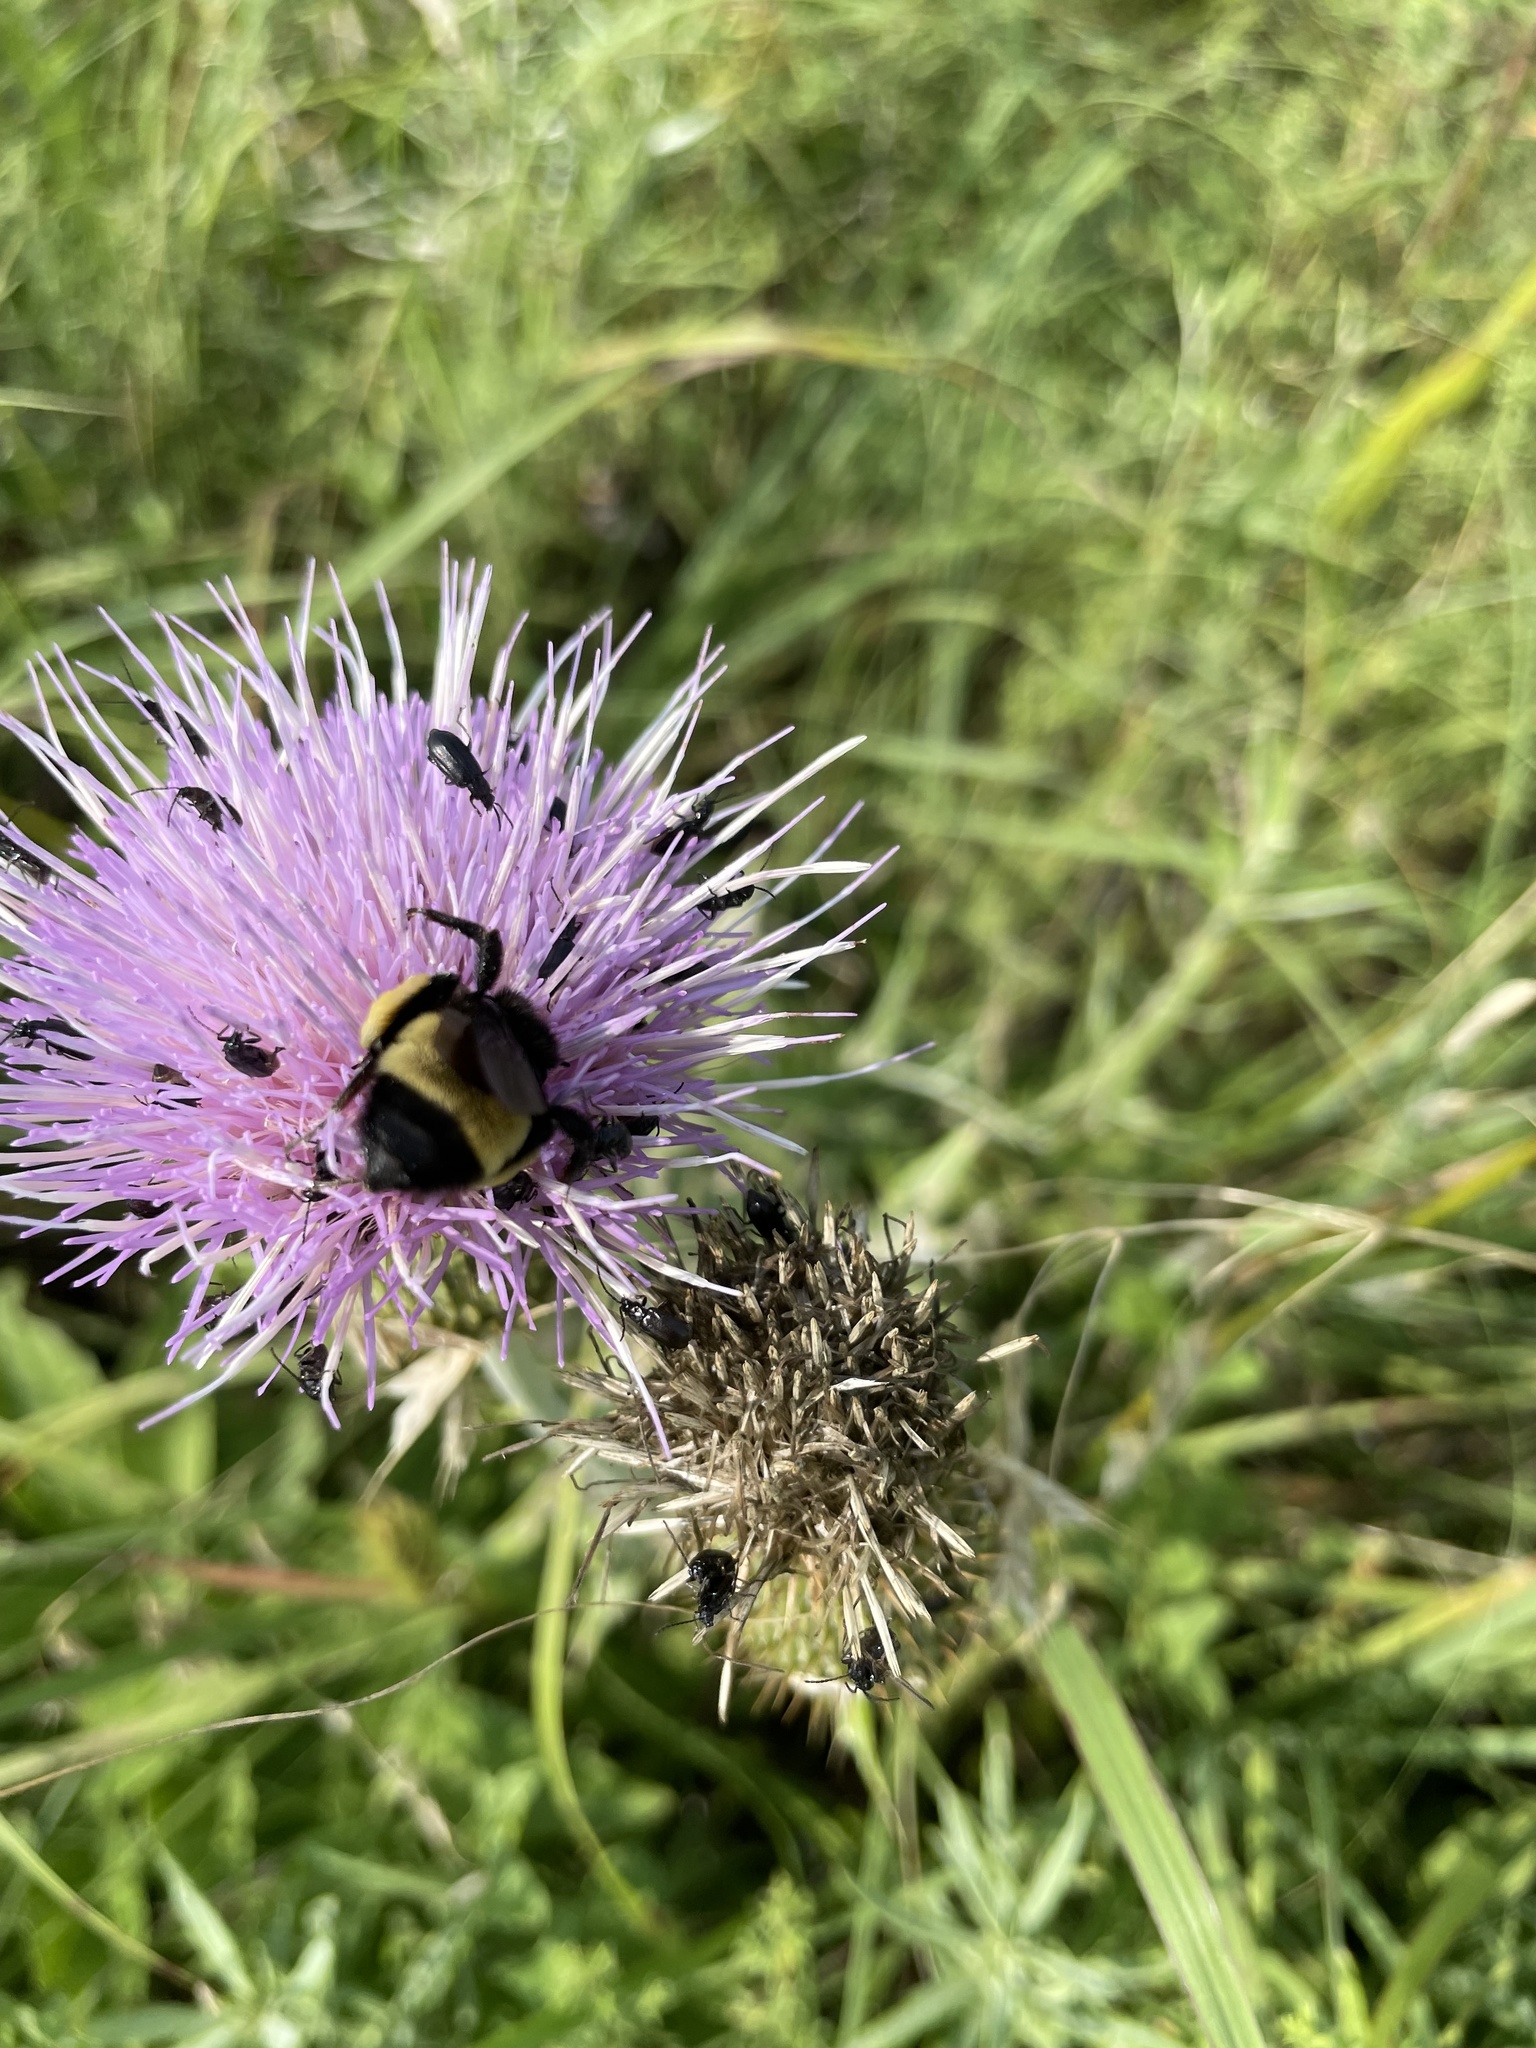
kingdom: Animalia
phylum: Arthropoda
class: Insecta
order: Hymenoptera
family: Apidae
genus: Bombus
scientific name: Bombus pensylvanicus
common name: Bumble bee
